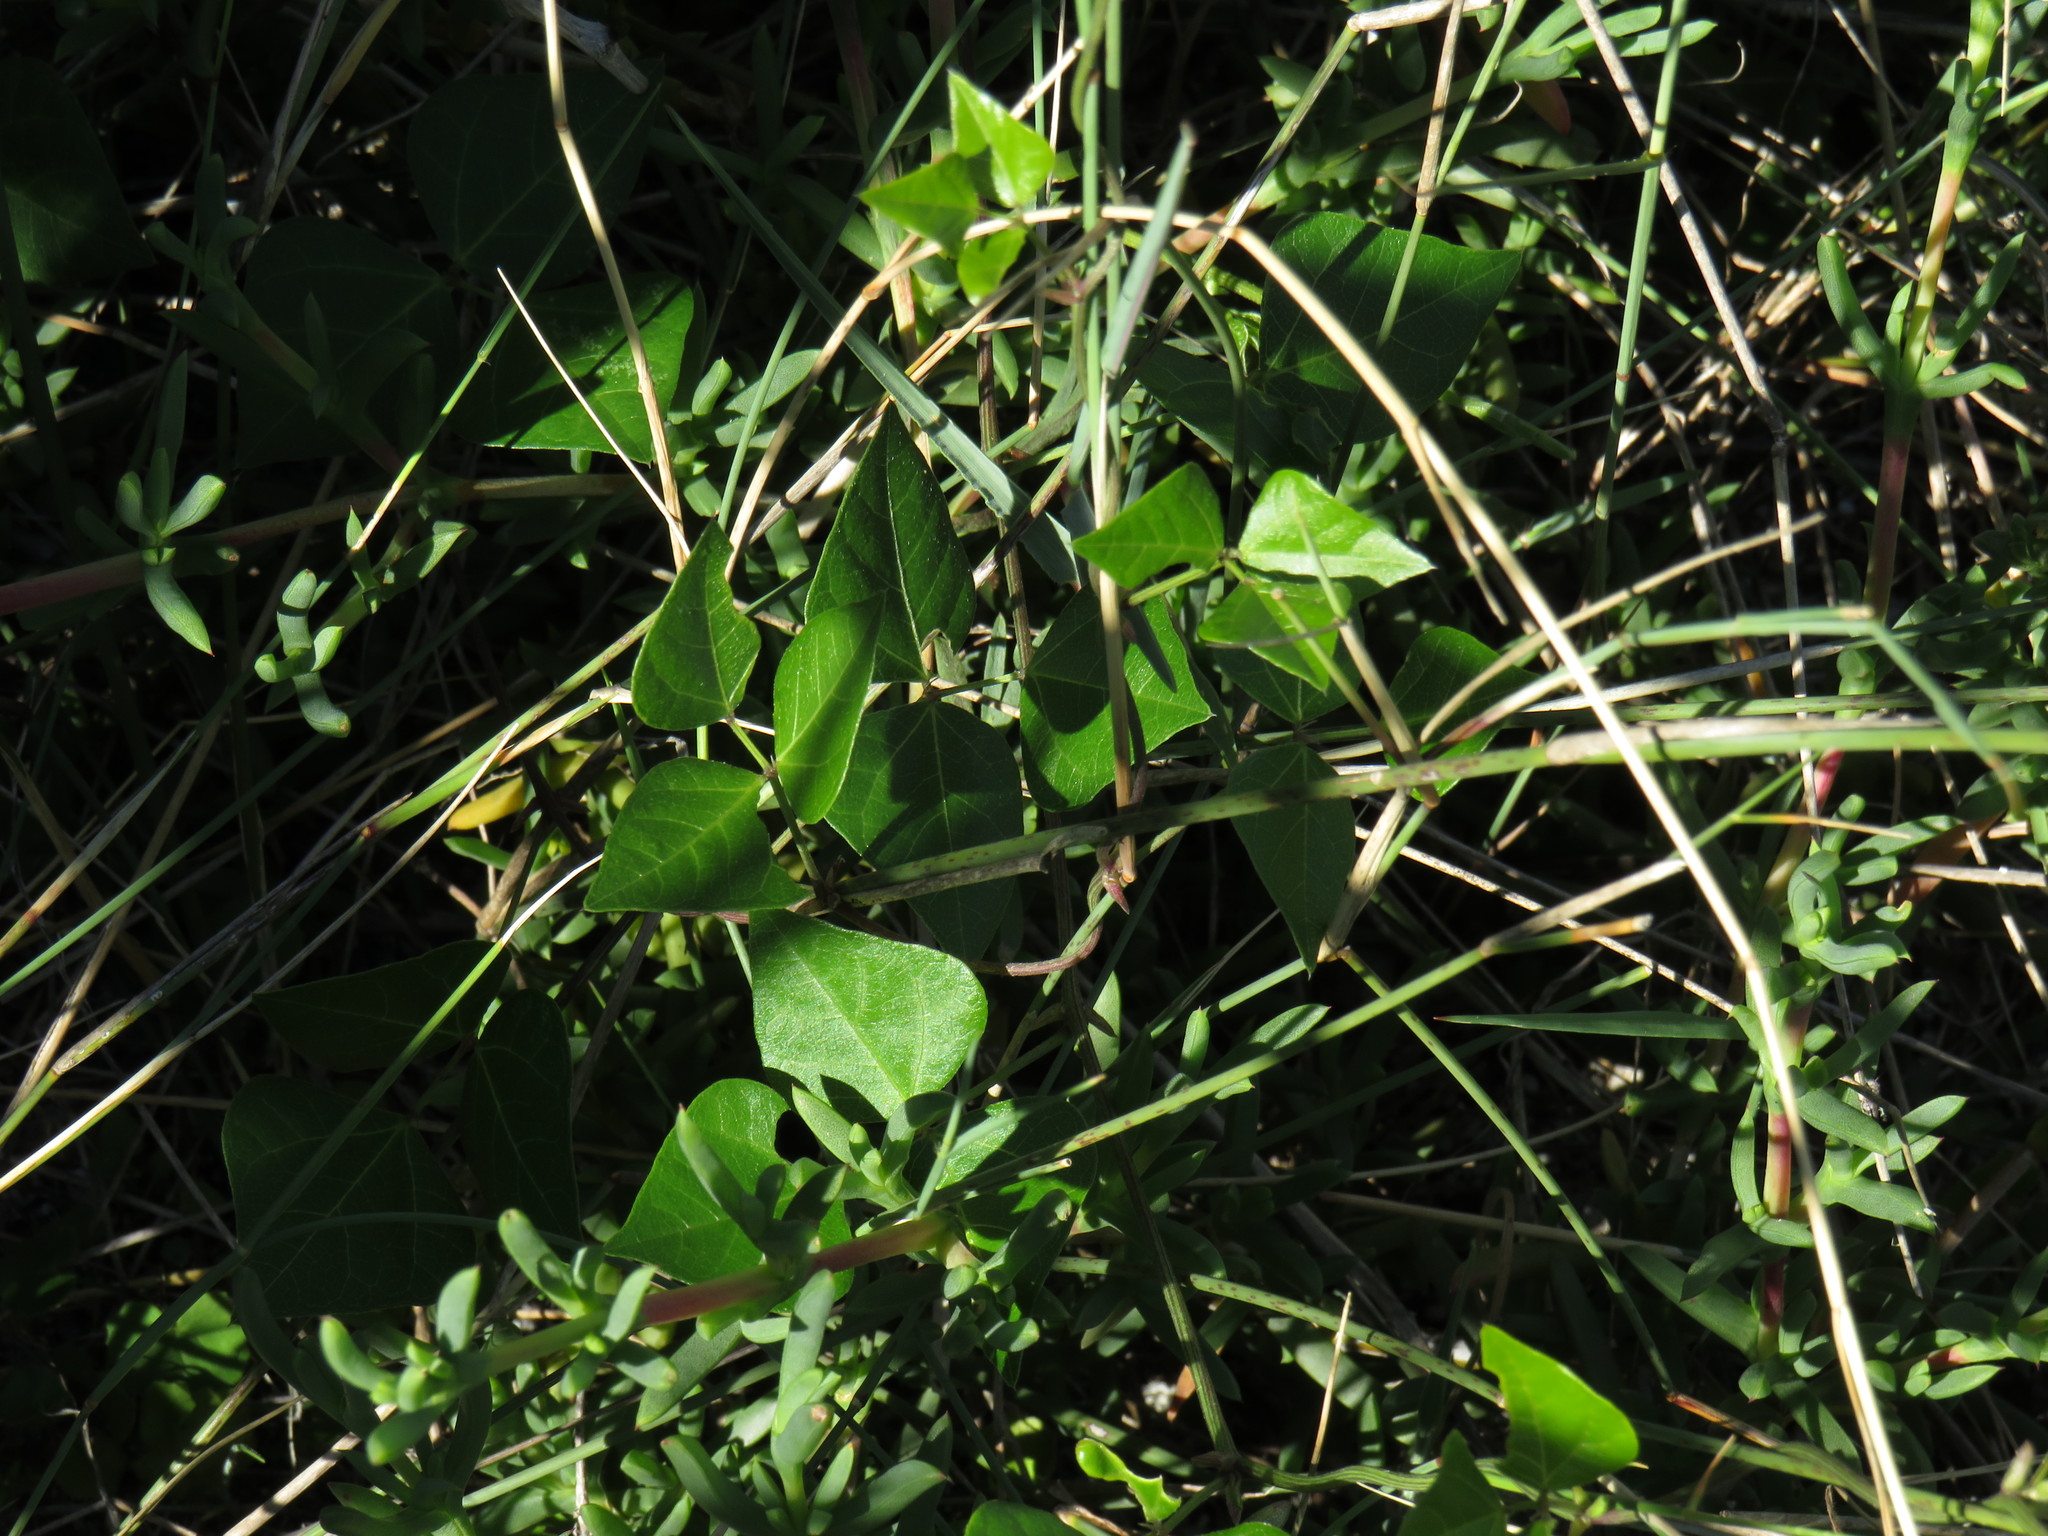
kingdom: Plantae
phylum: Tracheophyta
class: Magnoliopsida
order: Fabales
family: Fabaceae
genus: Dipogon
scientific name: Dipogon lignosus
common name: Okie bean
